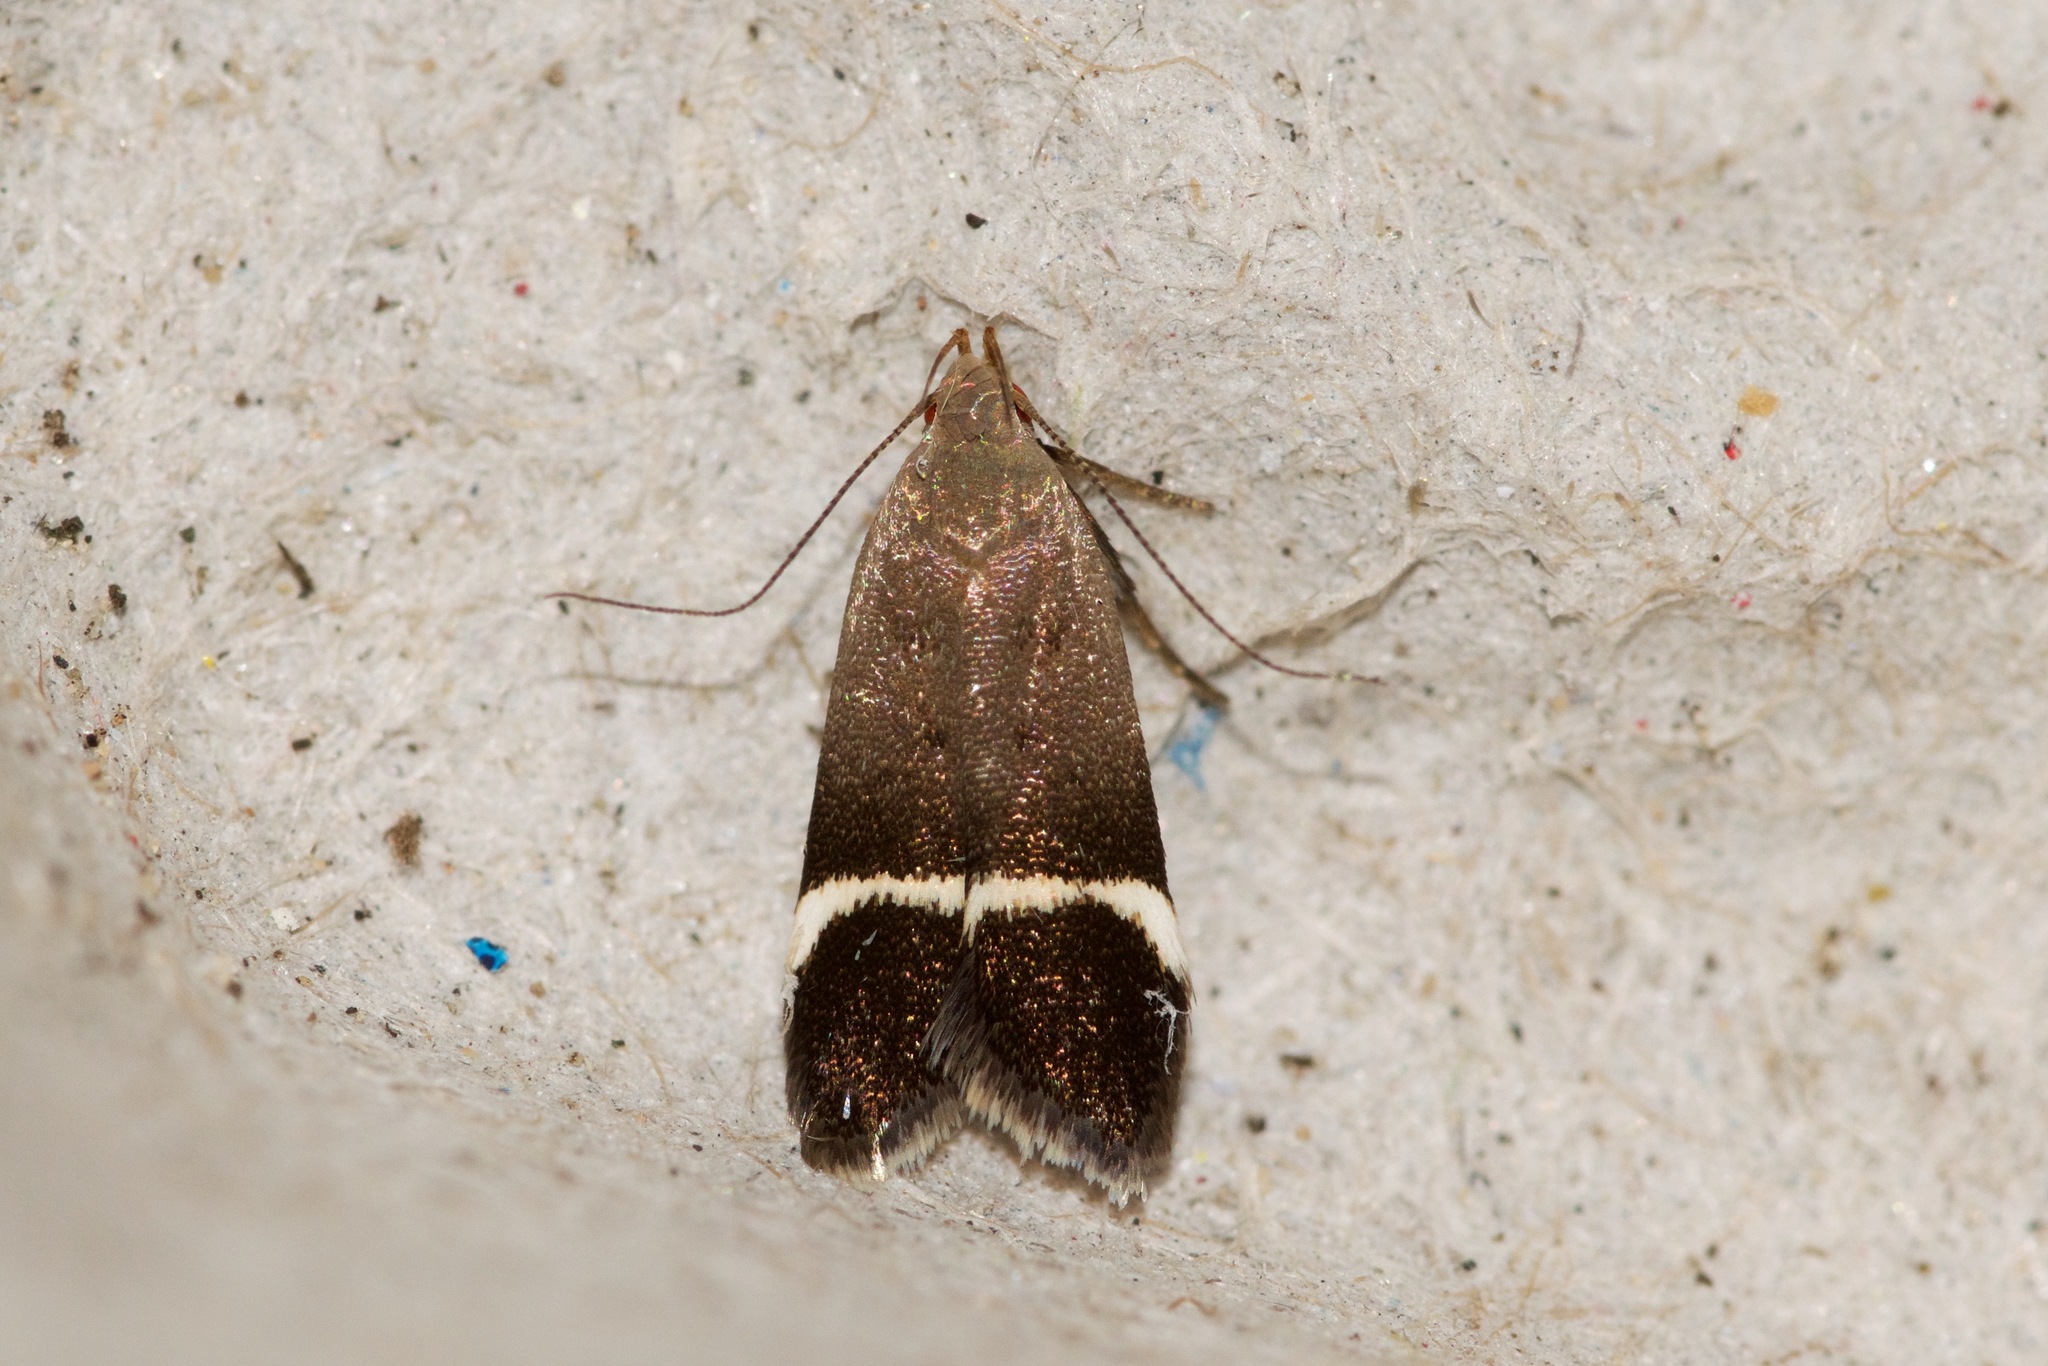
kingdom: Animalia
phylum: Arthropoda
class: Insecta
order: Lepidoptera
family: Gelechiidae
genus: Anacampsis
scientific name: Anacampsis agrimoniella
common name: Agrimony anacampsis moth
